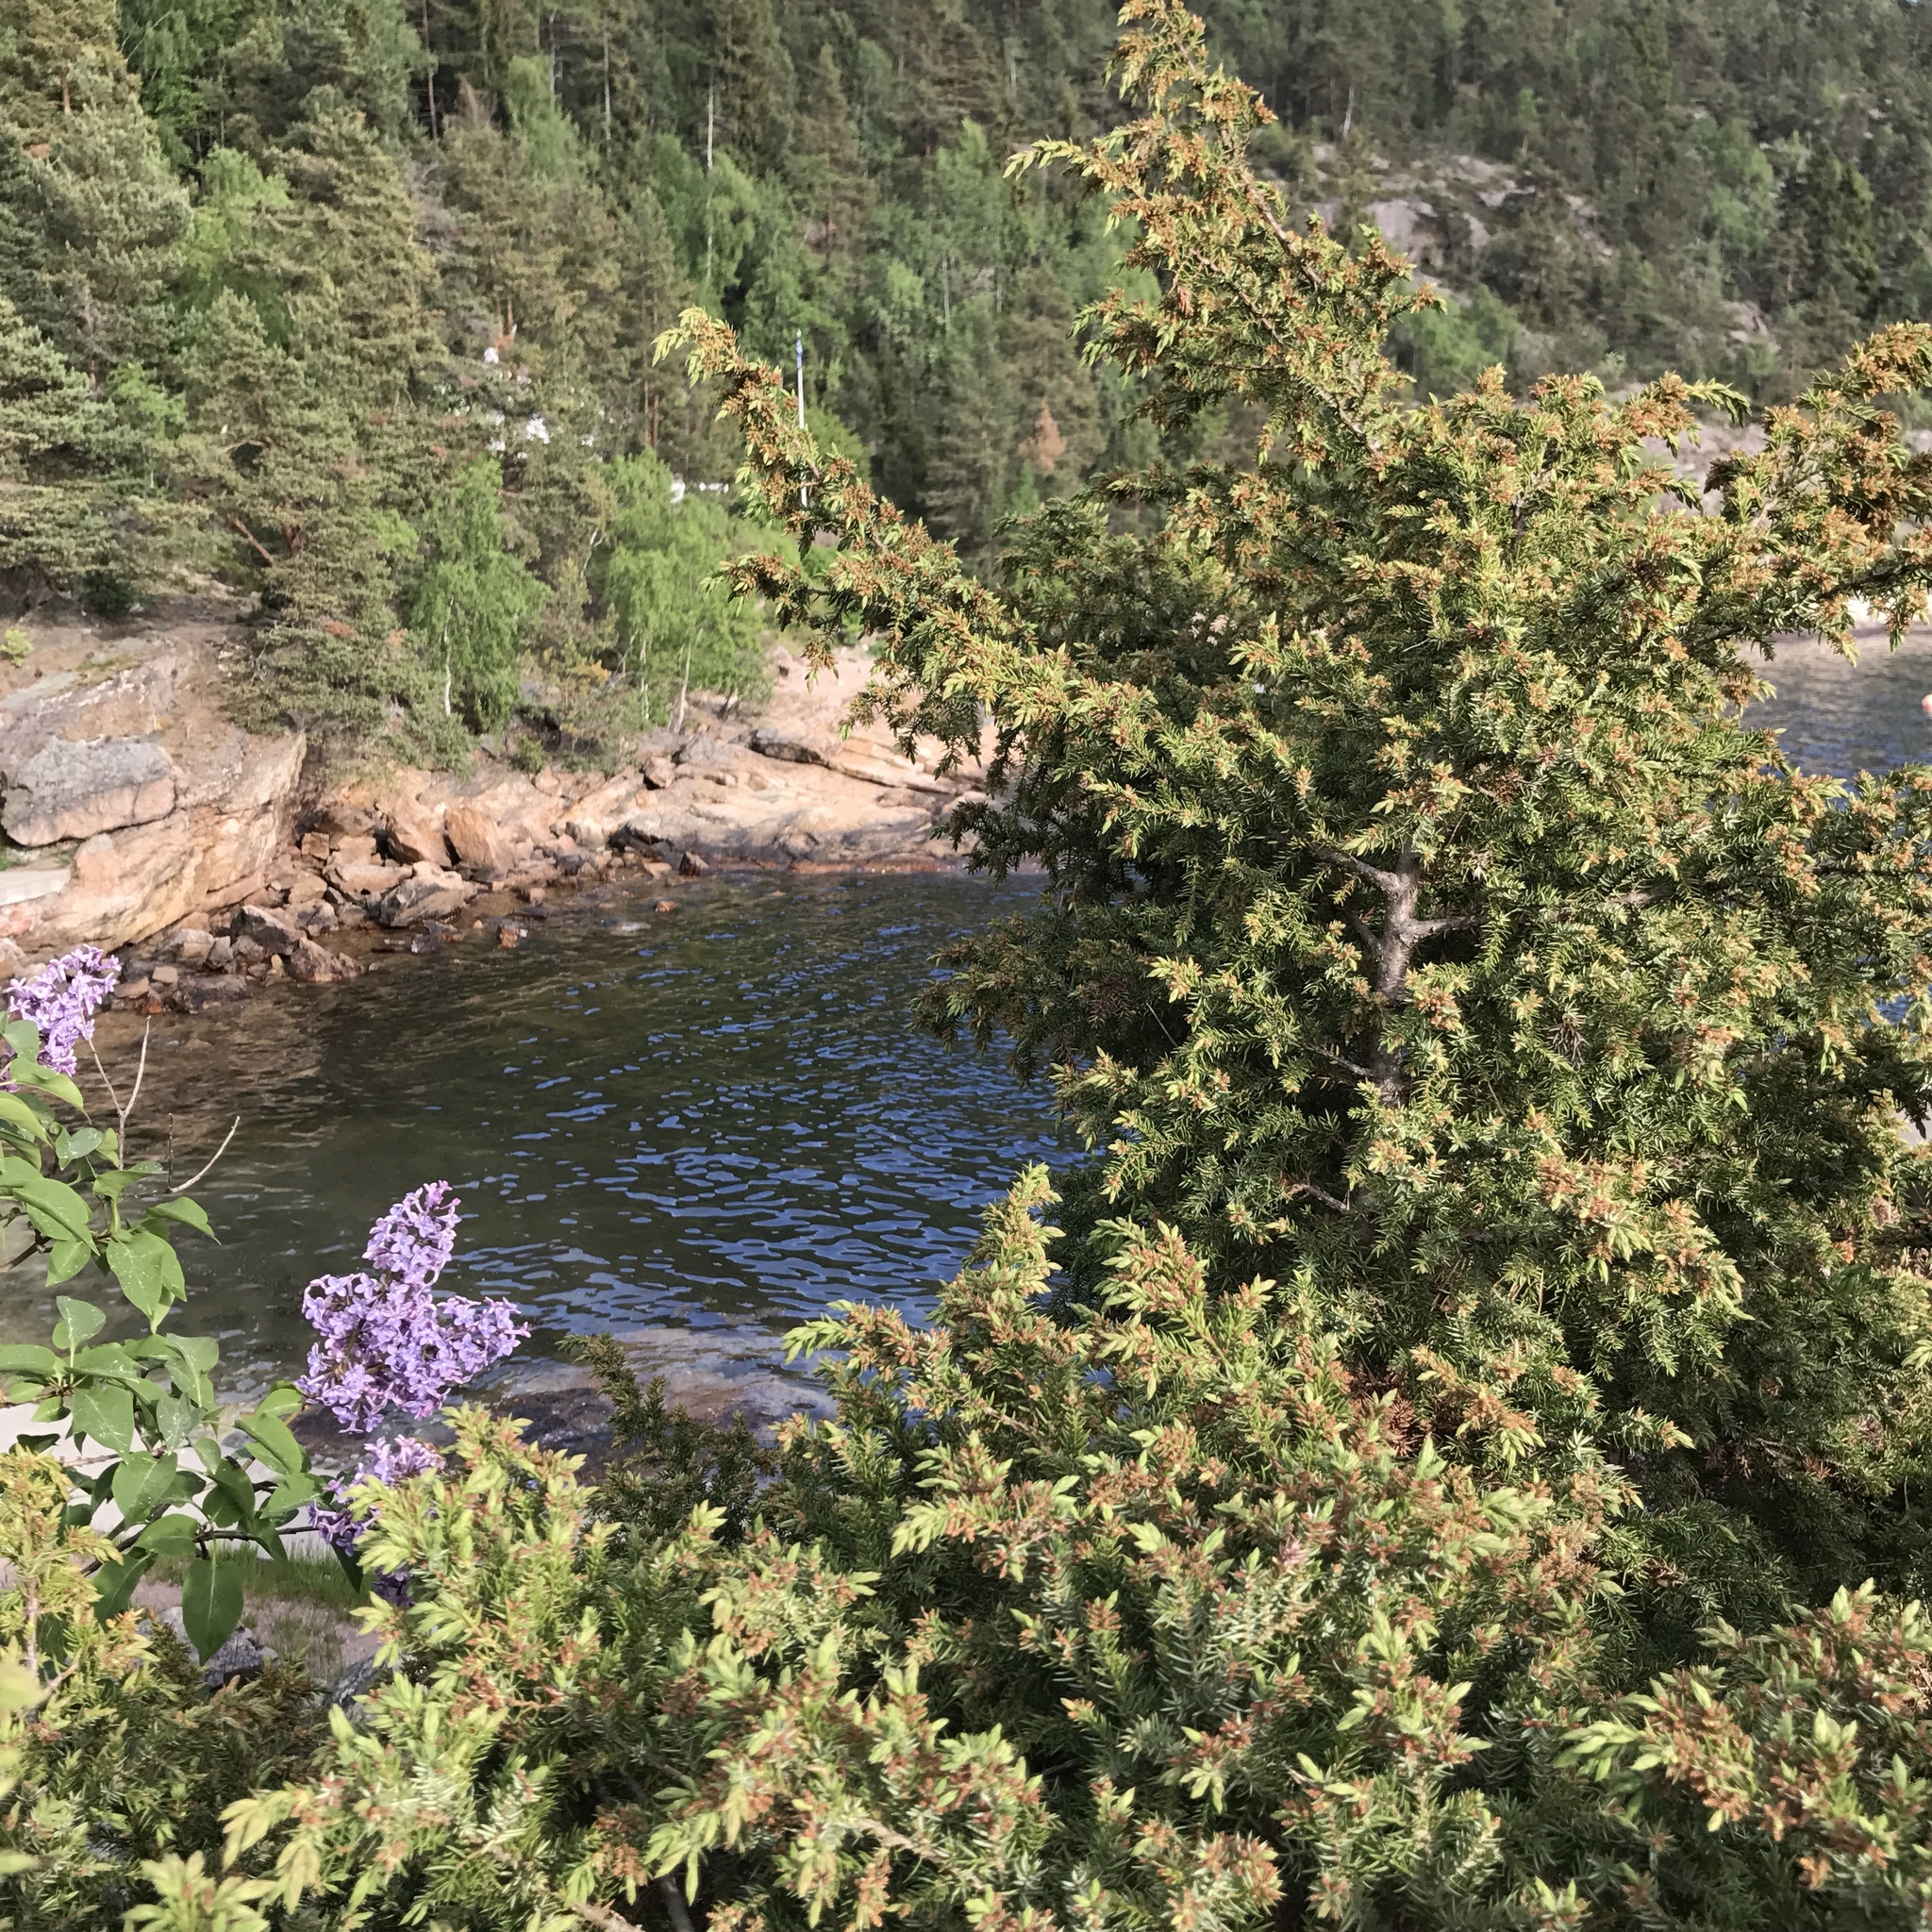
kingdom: Plantae
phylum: Tracheophyta
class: Pinopsida
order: Pinales
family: Cupressaceae
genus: Juniperus
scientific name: Juniperus communis
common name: Common juniper
